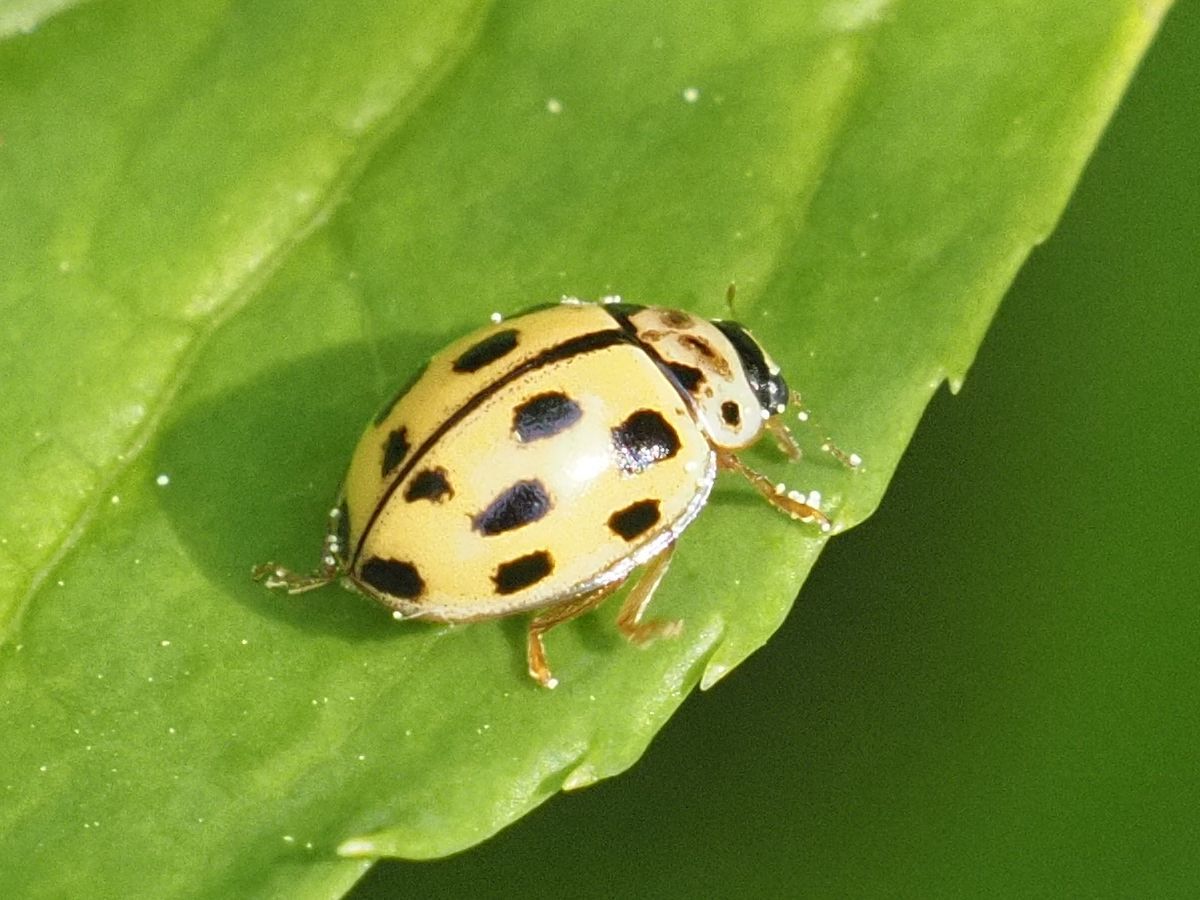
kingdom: Animalia
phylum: Arthropoda
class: Insecta
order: Coleoptera
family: Coccinellidae
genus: Propylaea
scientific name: Propylaea quatuordecimpunctata
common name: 14-spotted ladybird beetle
